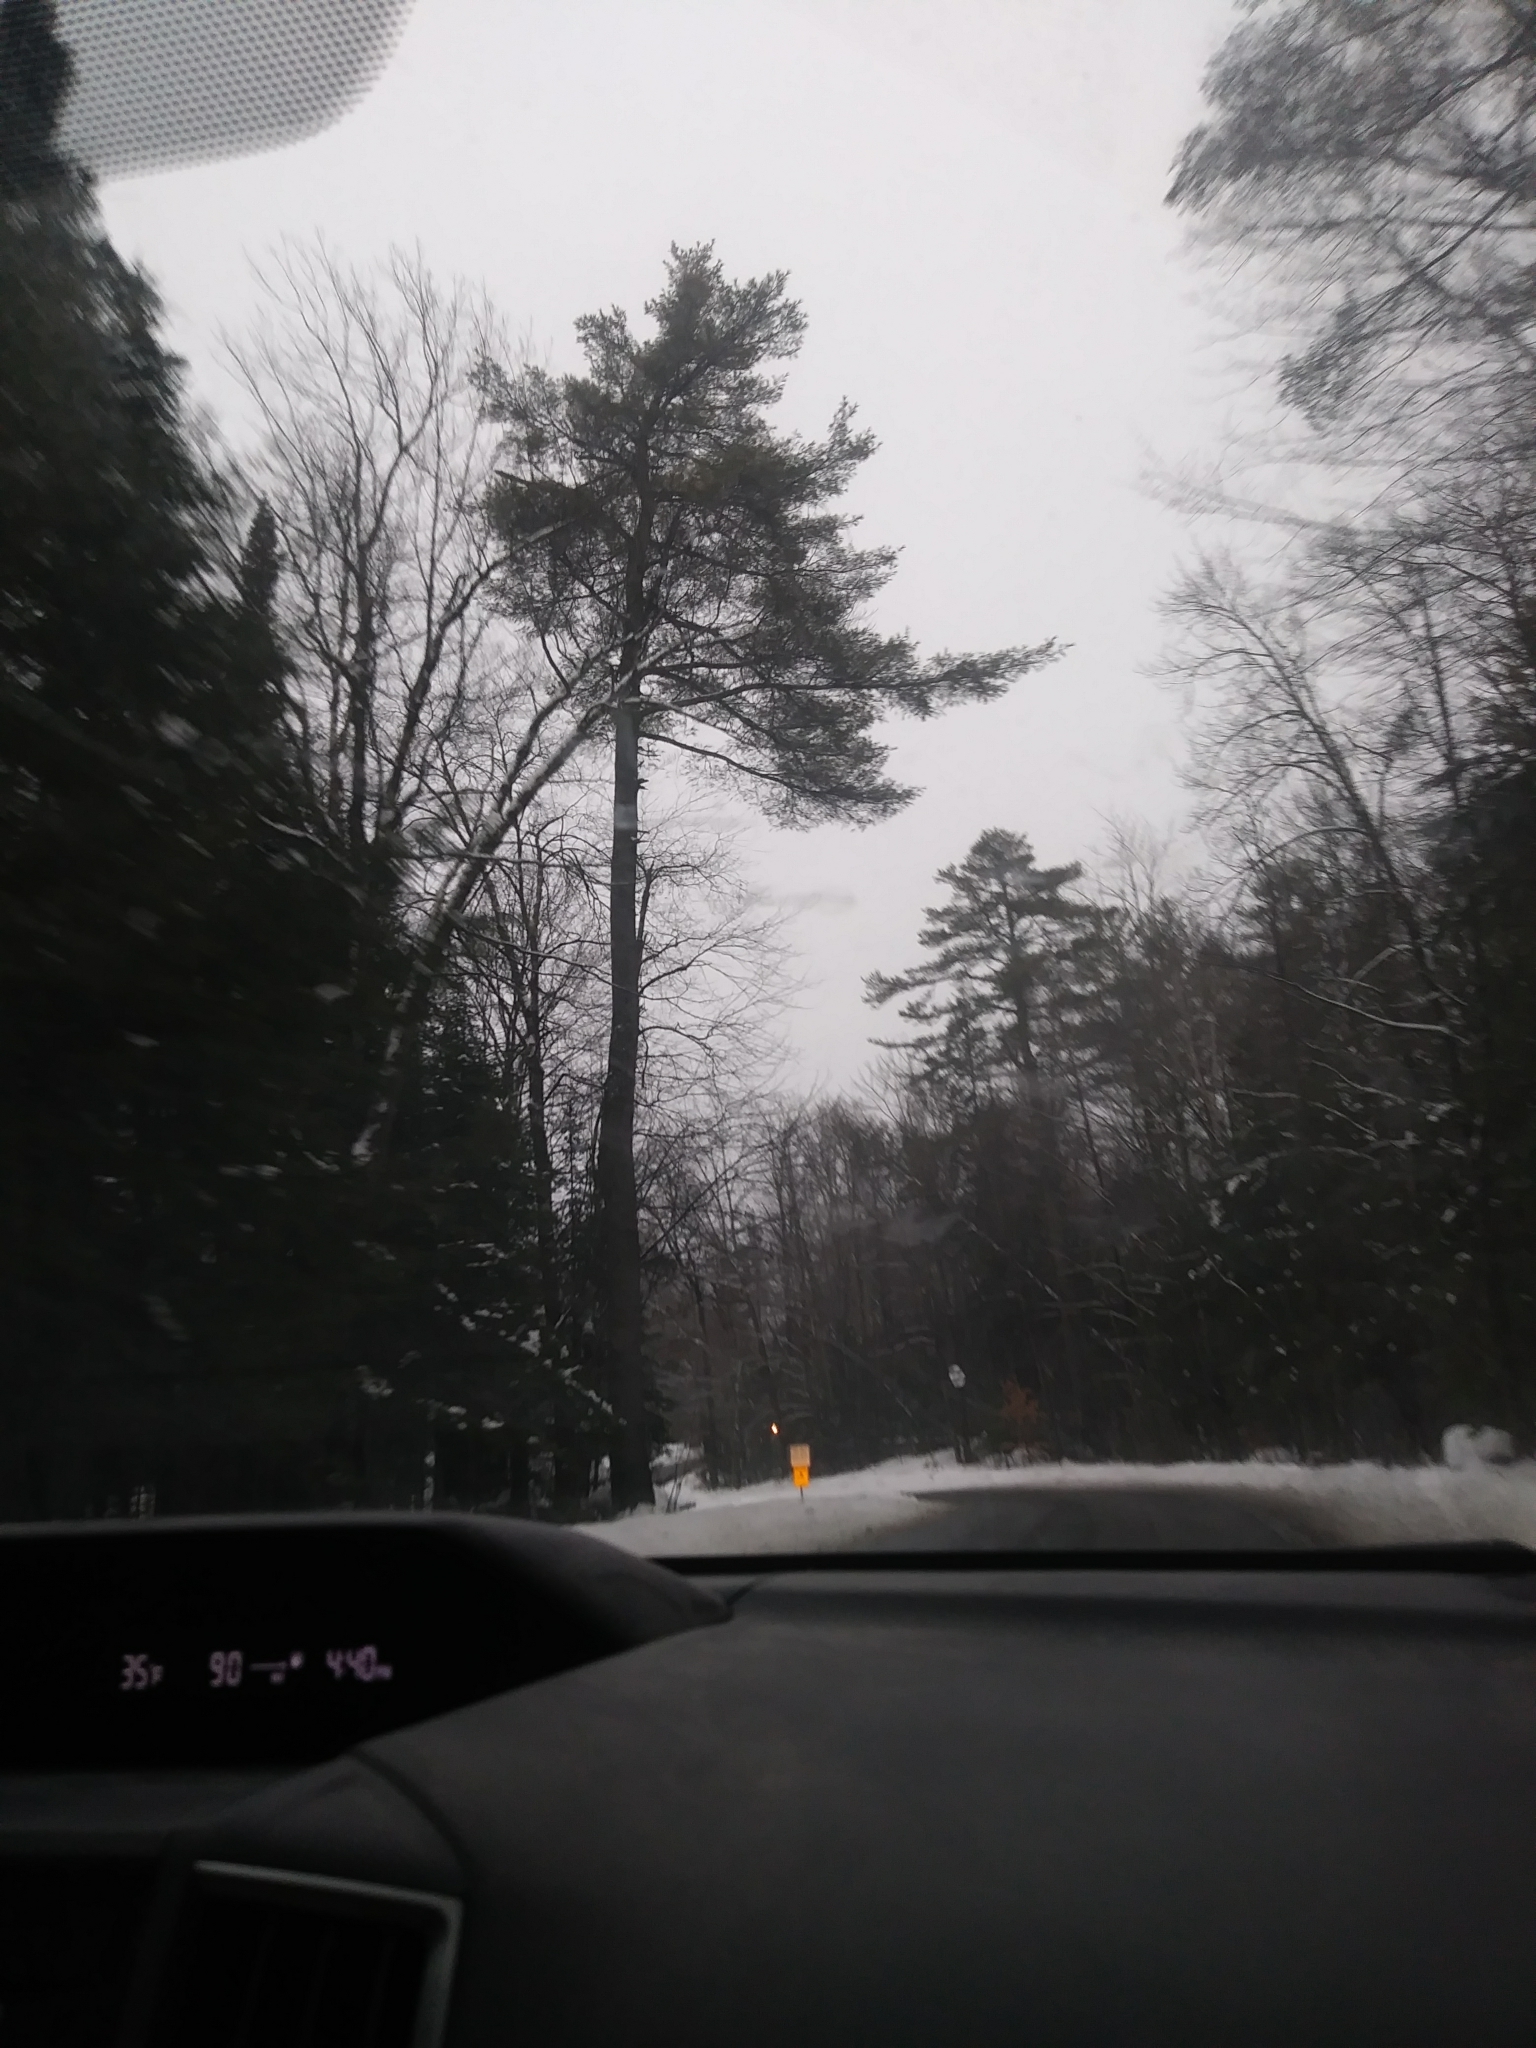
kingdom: Plantae
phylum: Tracheophyta
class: Pinopsida
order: Pinales
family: Pinaceae
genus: Pinus
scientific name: Pinus strobus
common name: Weymouth pine
